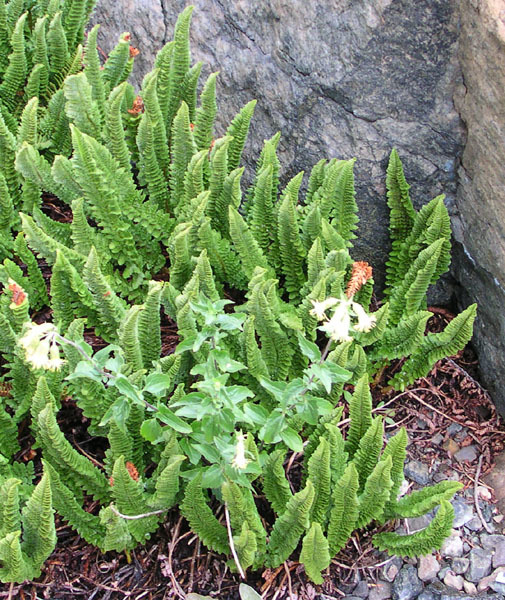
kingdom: Plantae
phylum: Tracheophyta
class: Polypodiopsida
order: Polypodiales
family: Dryopteridaceae
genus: Polystichum
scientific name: Polystichum lemmonii
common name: Lemmon's holly fern
